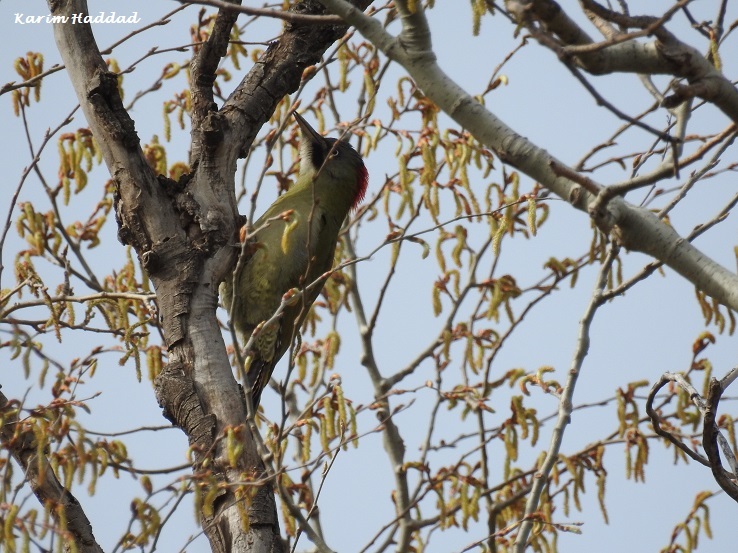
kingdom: Animalia
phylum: Chordata
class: Aves
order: Piciformes
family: Picidae
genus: Picus
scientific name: Picus vaillantii
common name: Levaillant's woodpecker
